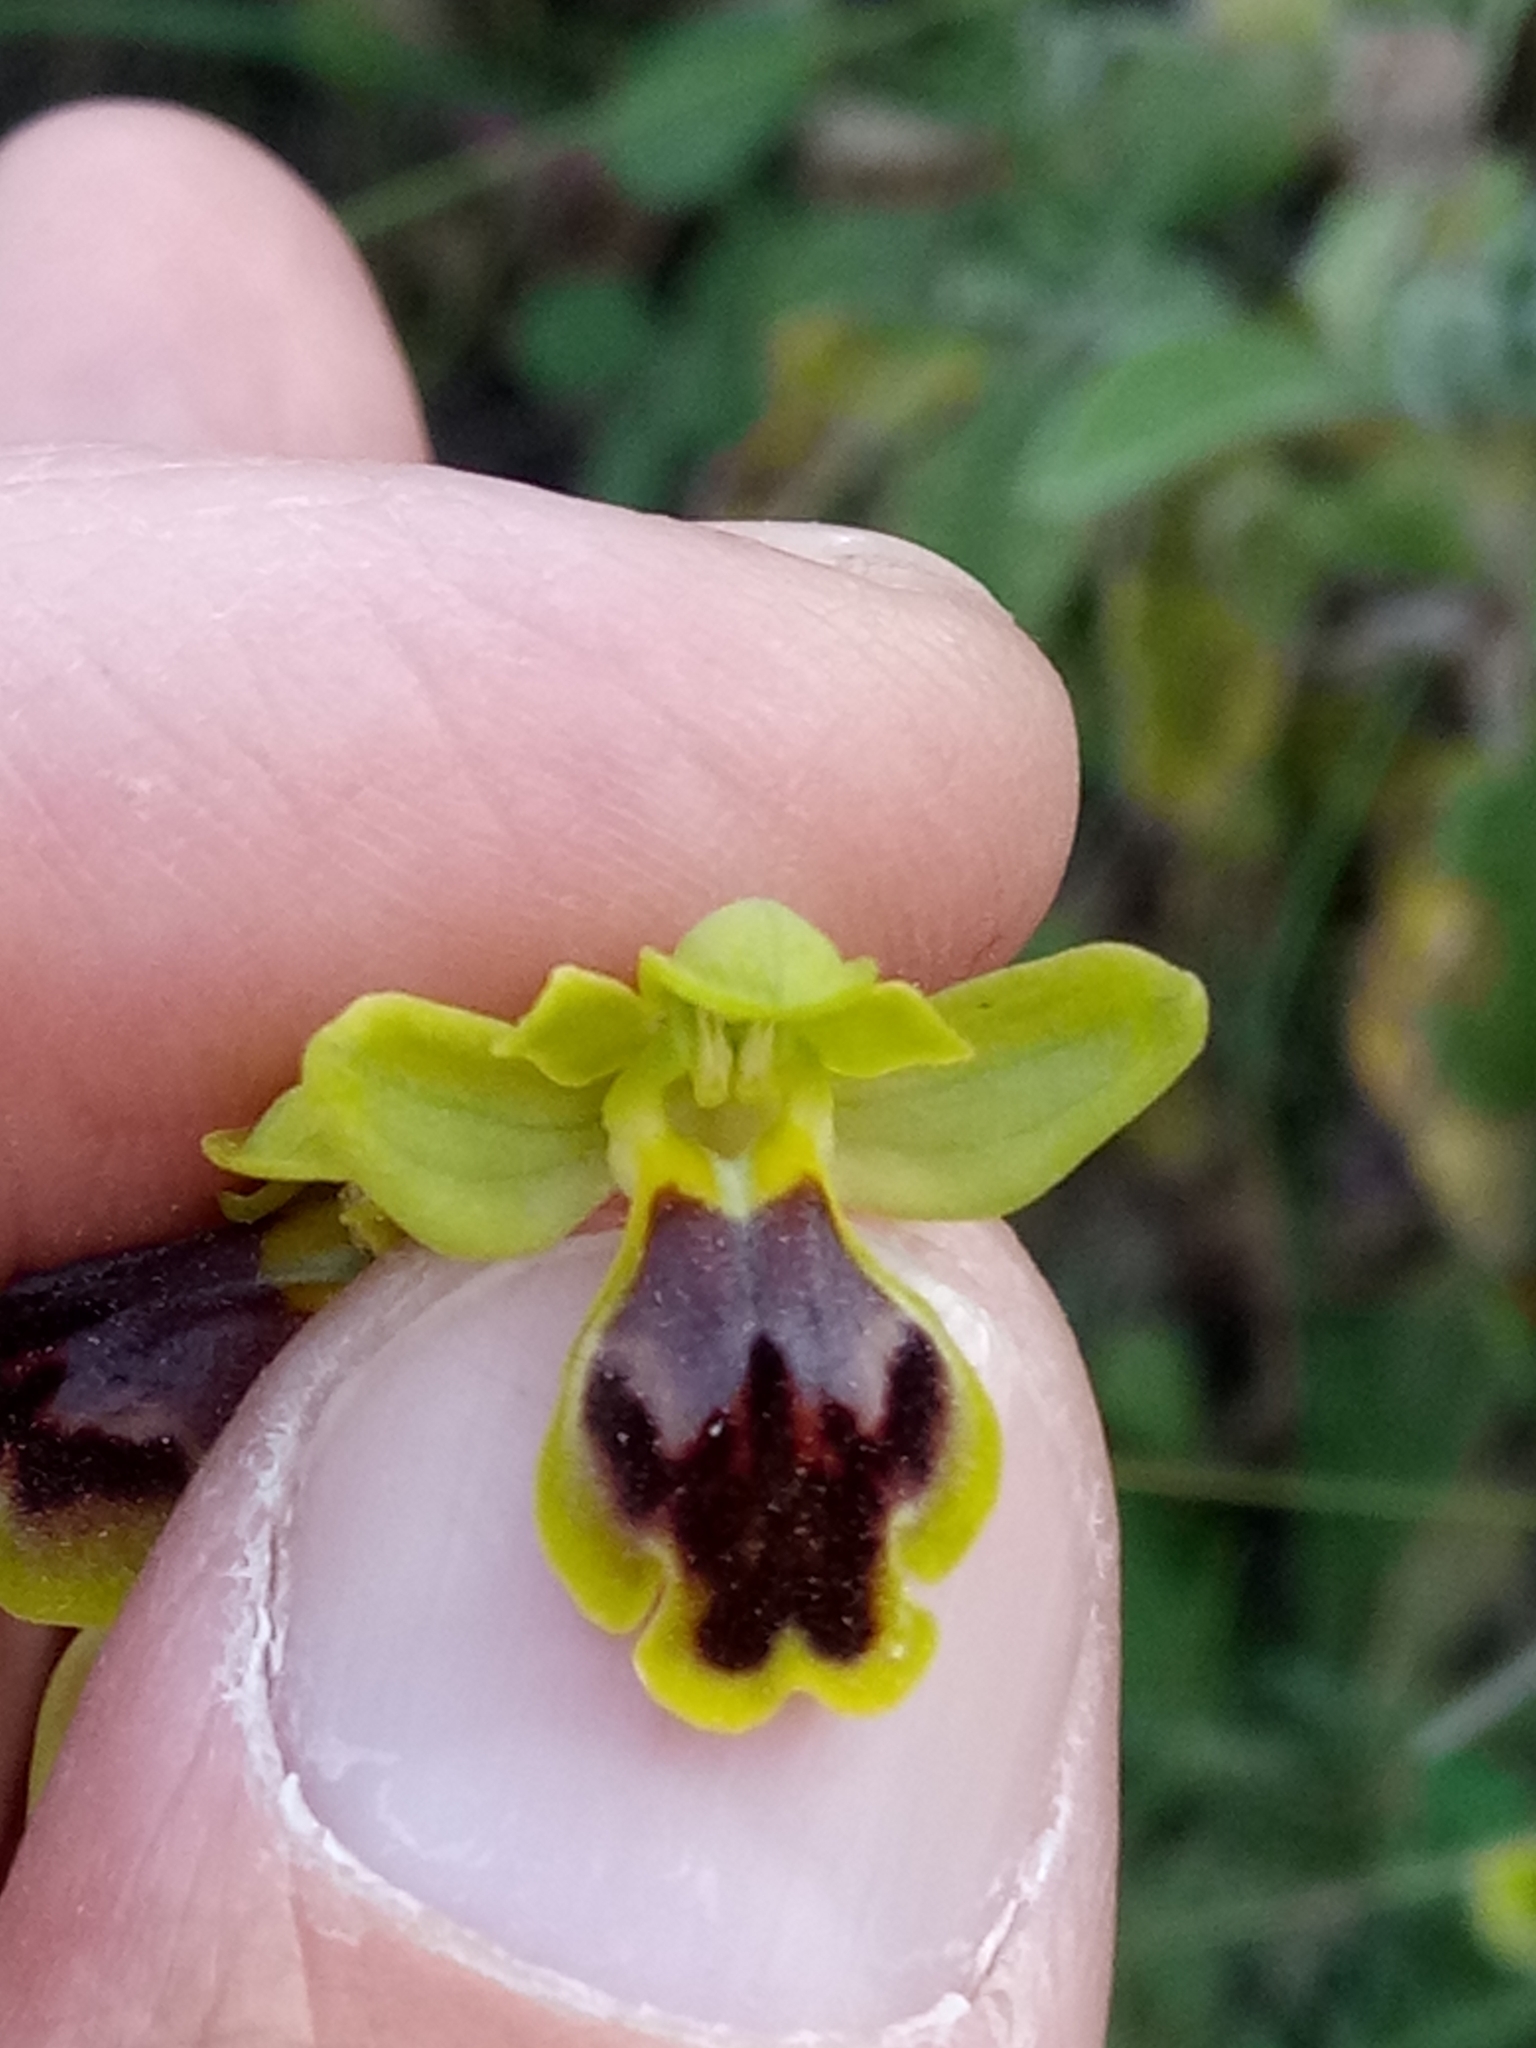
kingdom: Plantae
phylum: Tracheophyta
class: Liliopsida
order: Asparagales
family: Orchidaceae
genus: Ophrys
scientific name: Ophrys battandieri
